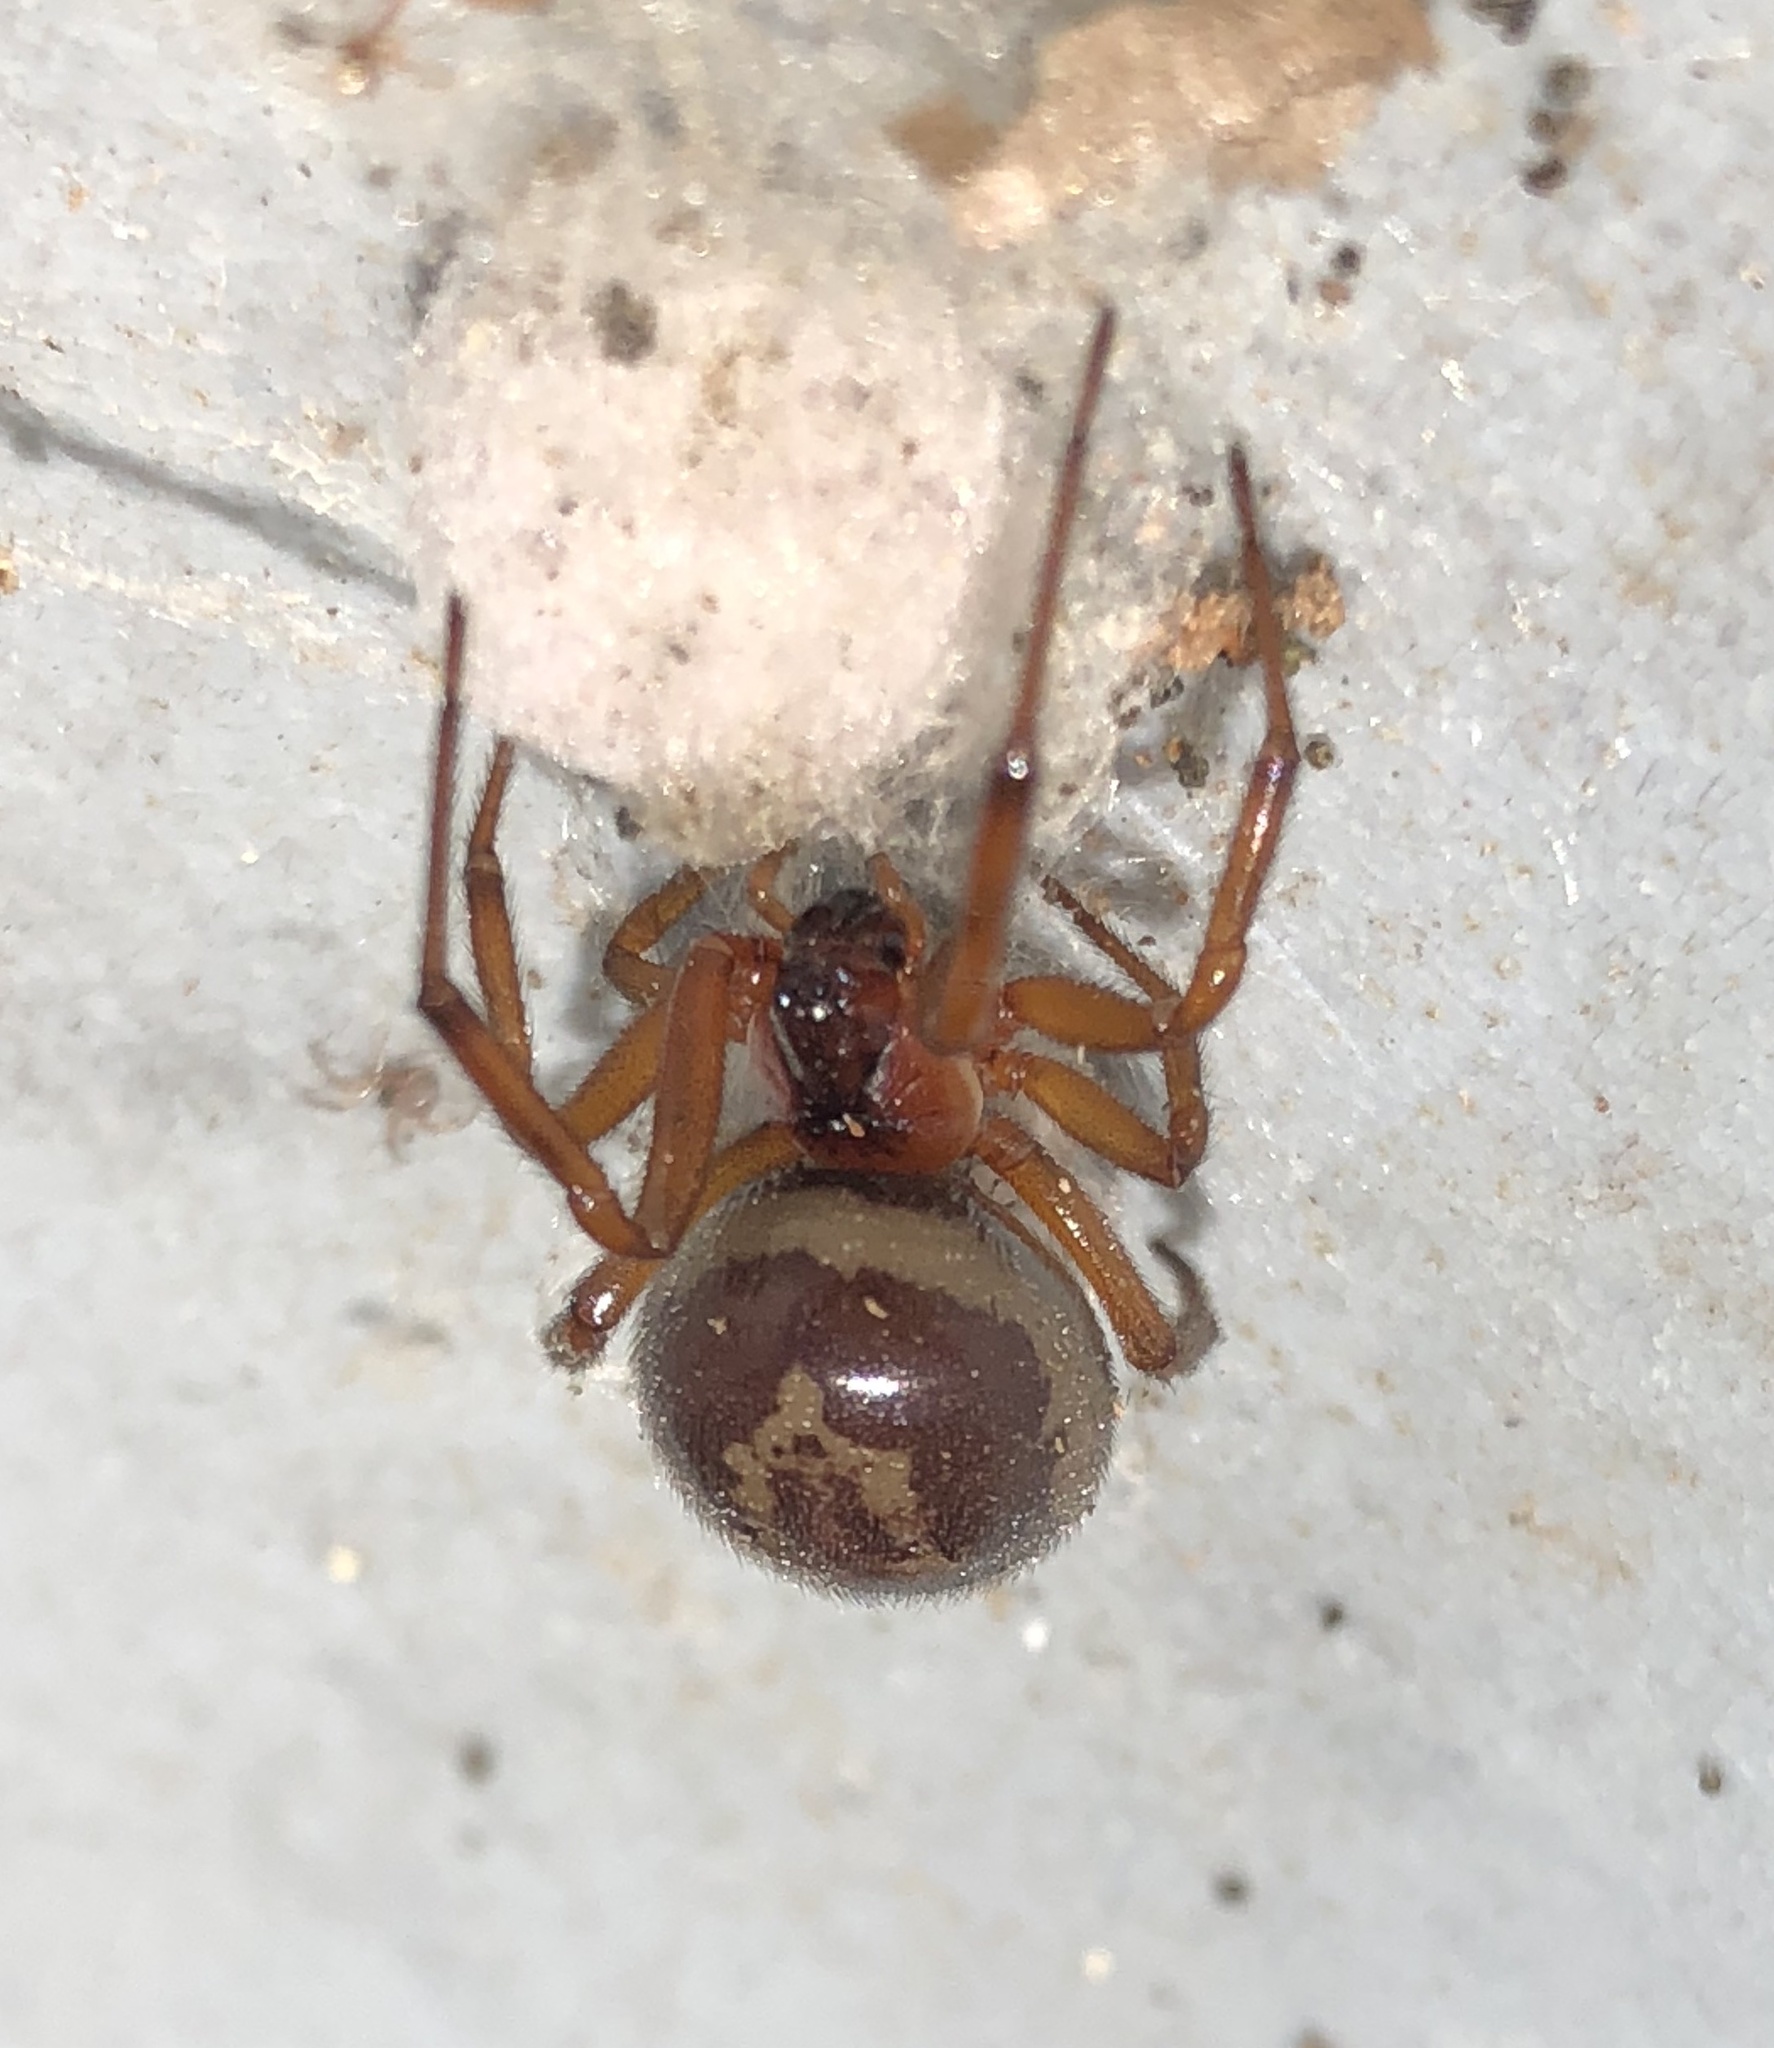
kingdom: Animalia
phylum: Arthropoda
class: Arachnida
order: Araneae
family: Theridiidae
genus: Steatoda
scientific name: Steatoda nobilis
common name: Cobweb weaver
